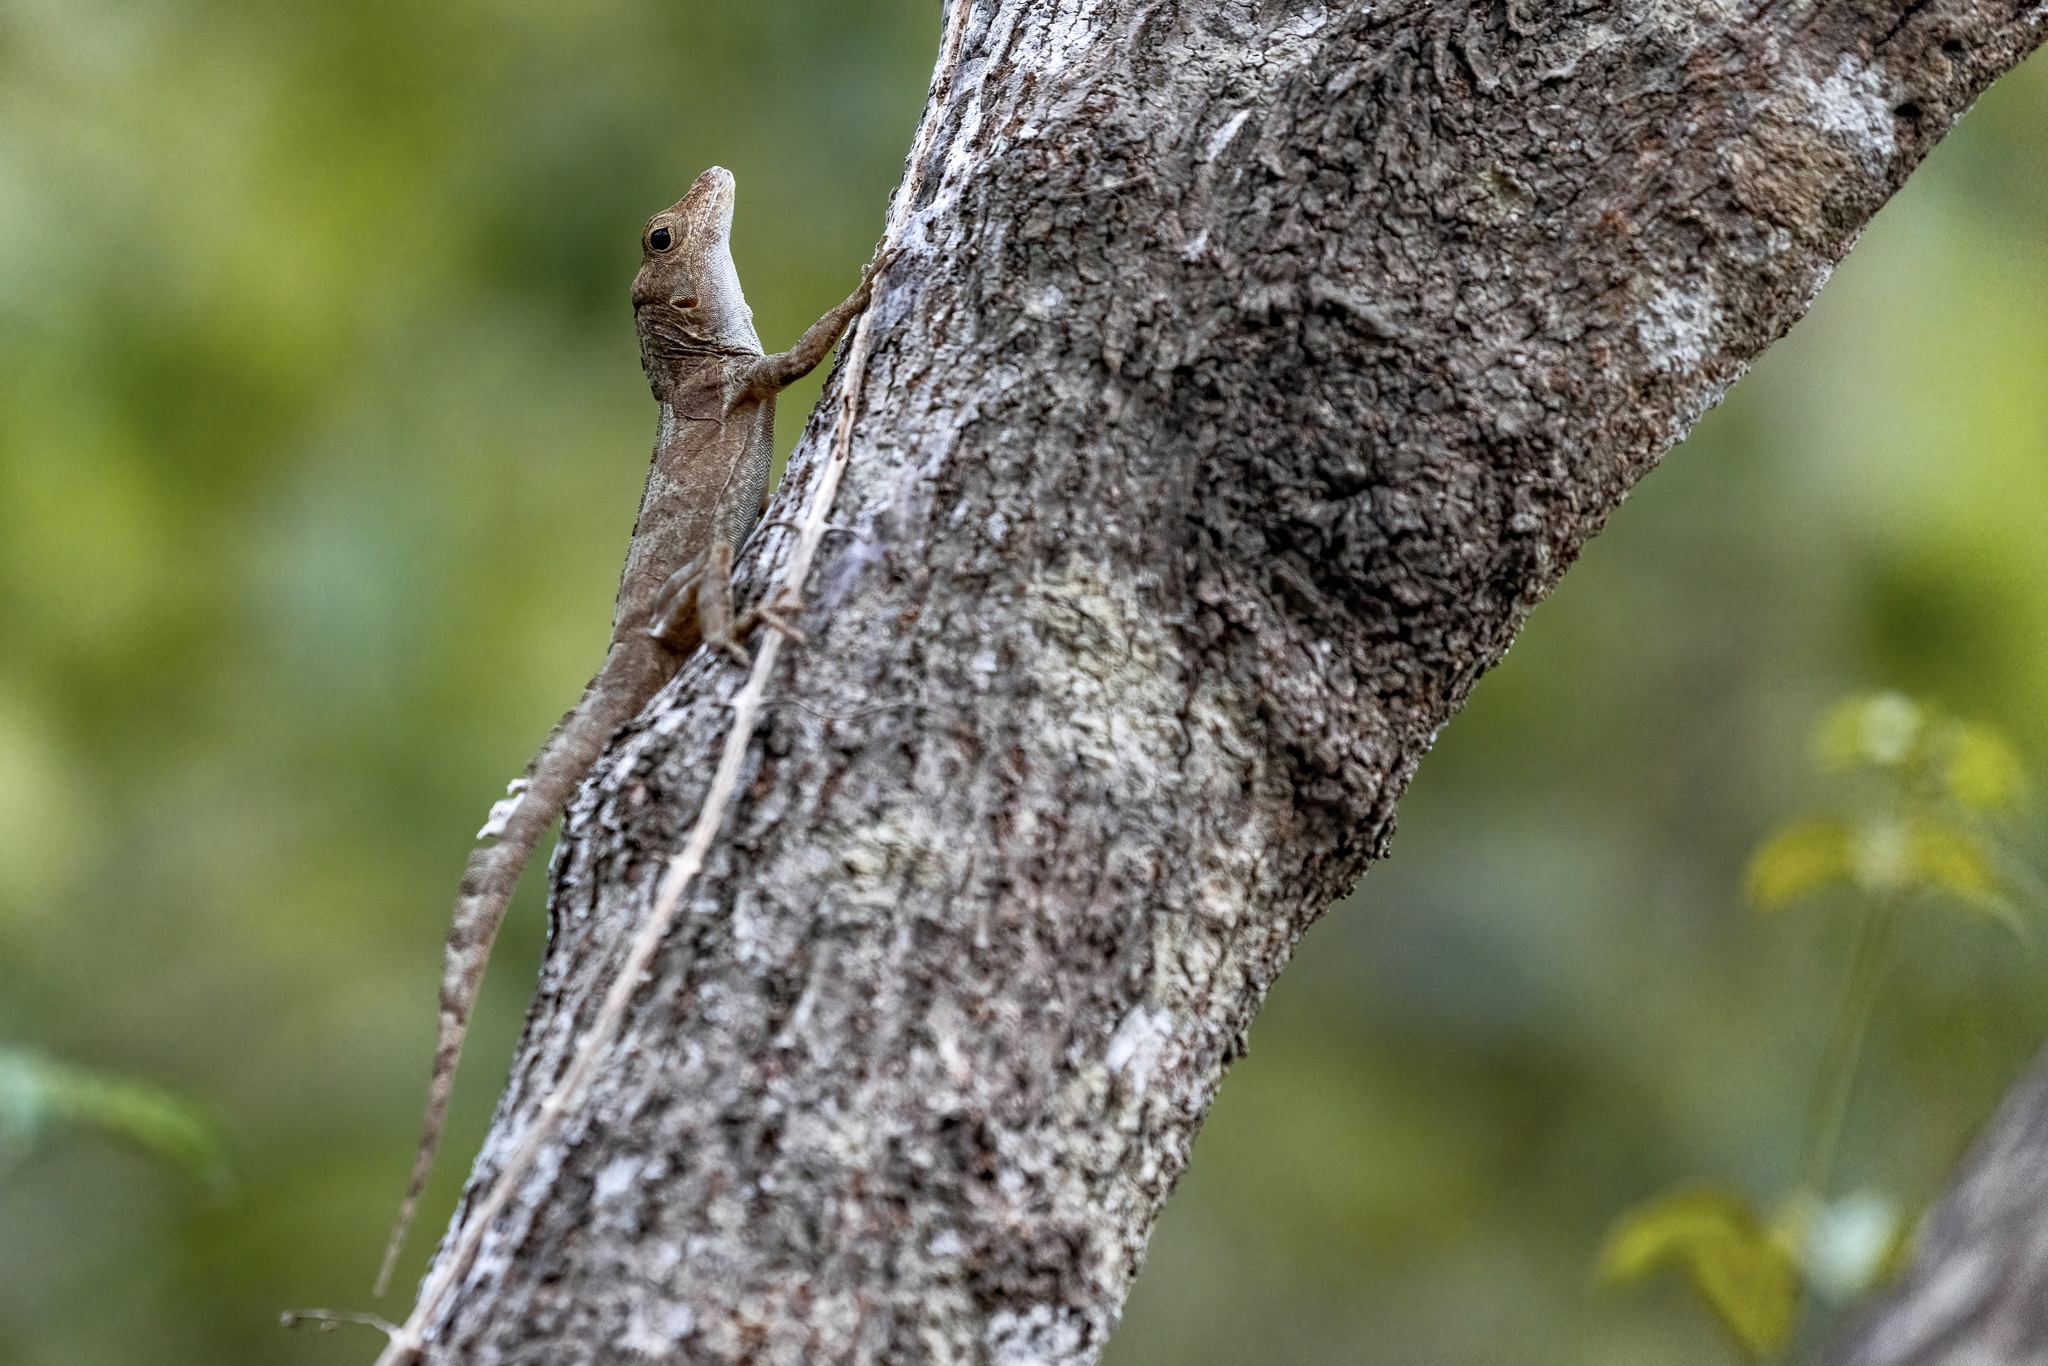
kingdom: Animalia
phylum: Chordata
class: Squamata
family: Dactyloidae
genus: Anolis
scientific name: Anolis cristatellus
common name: Crested anole
